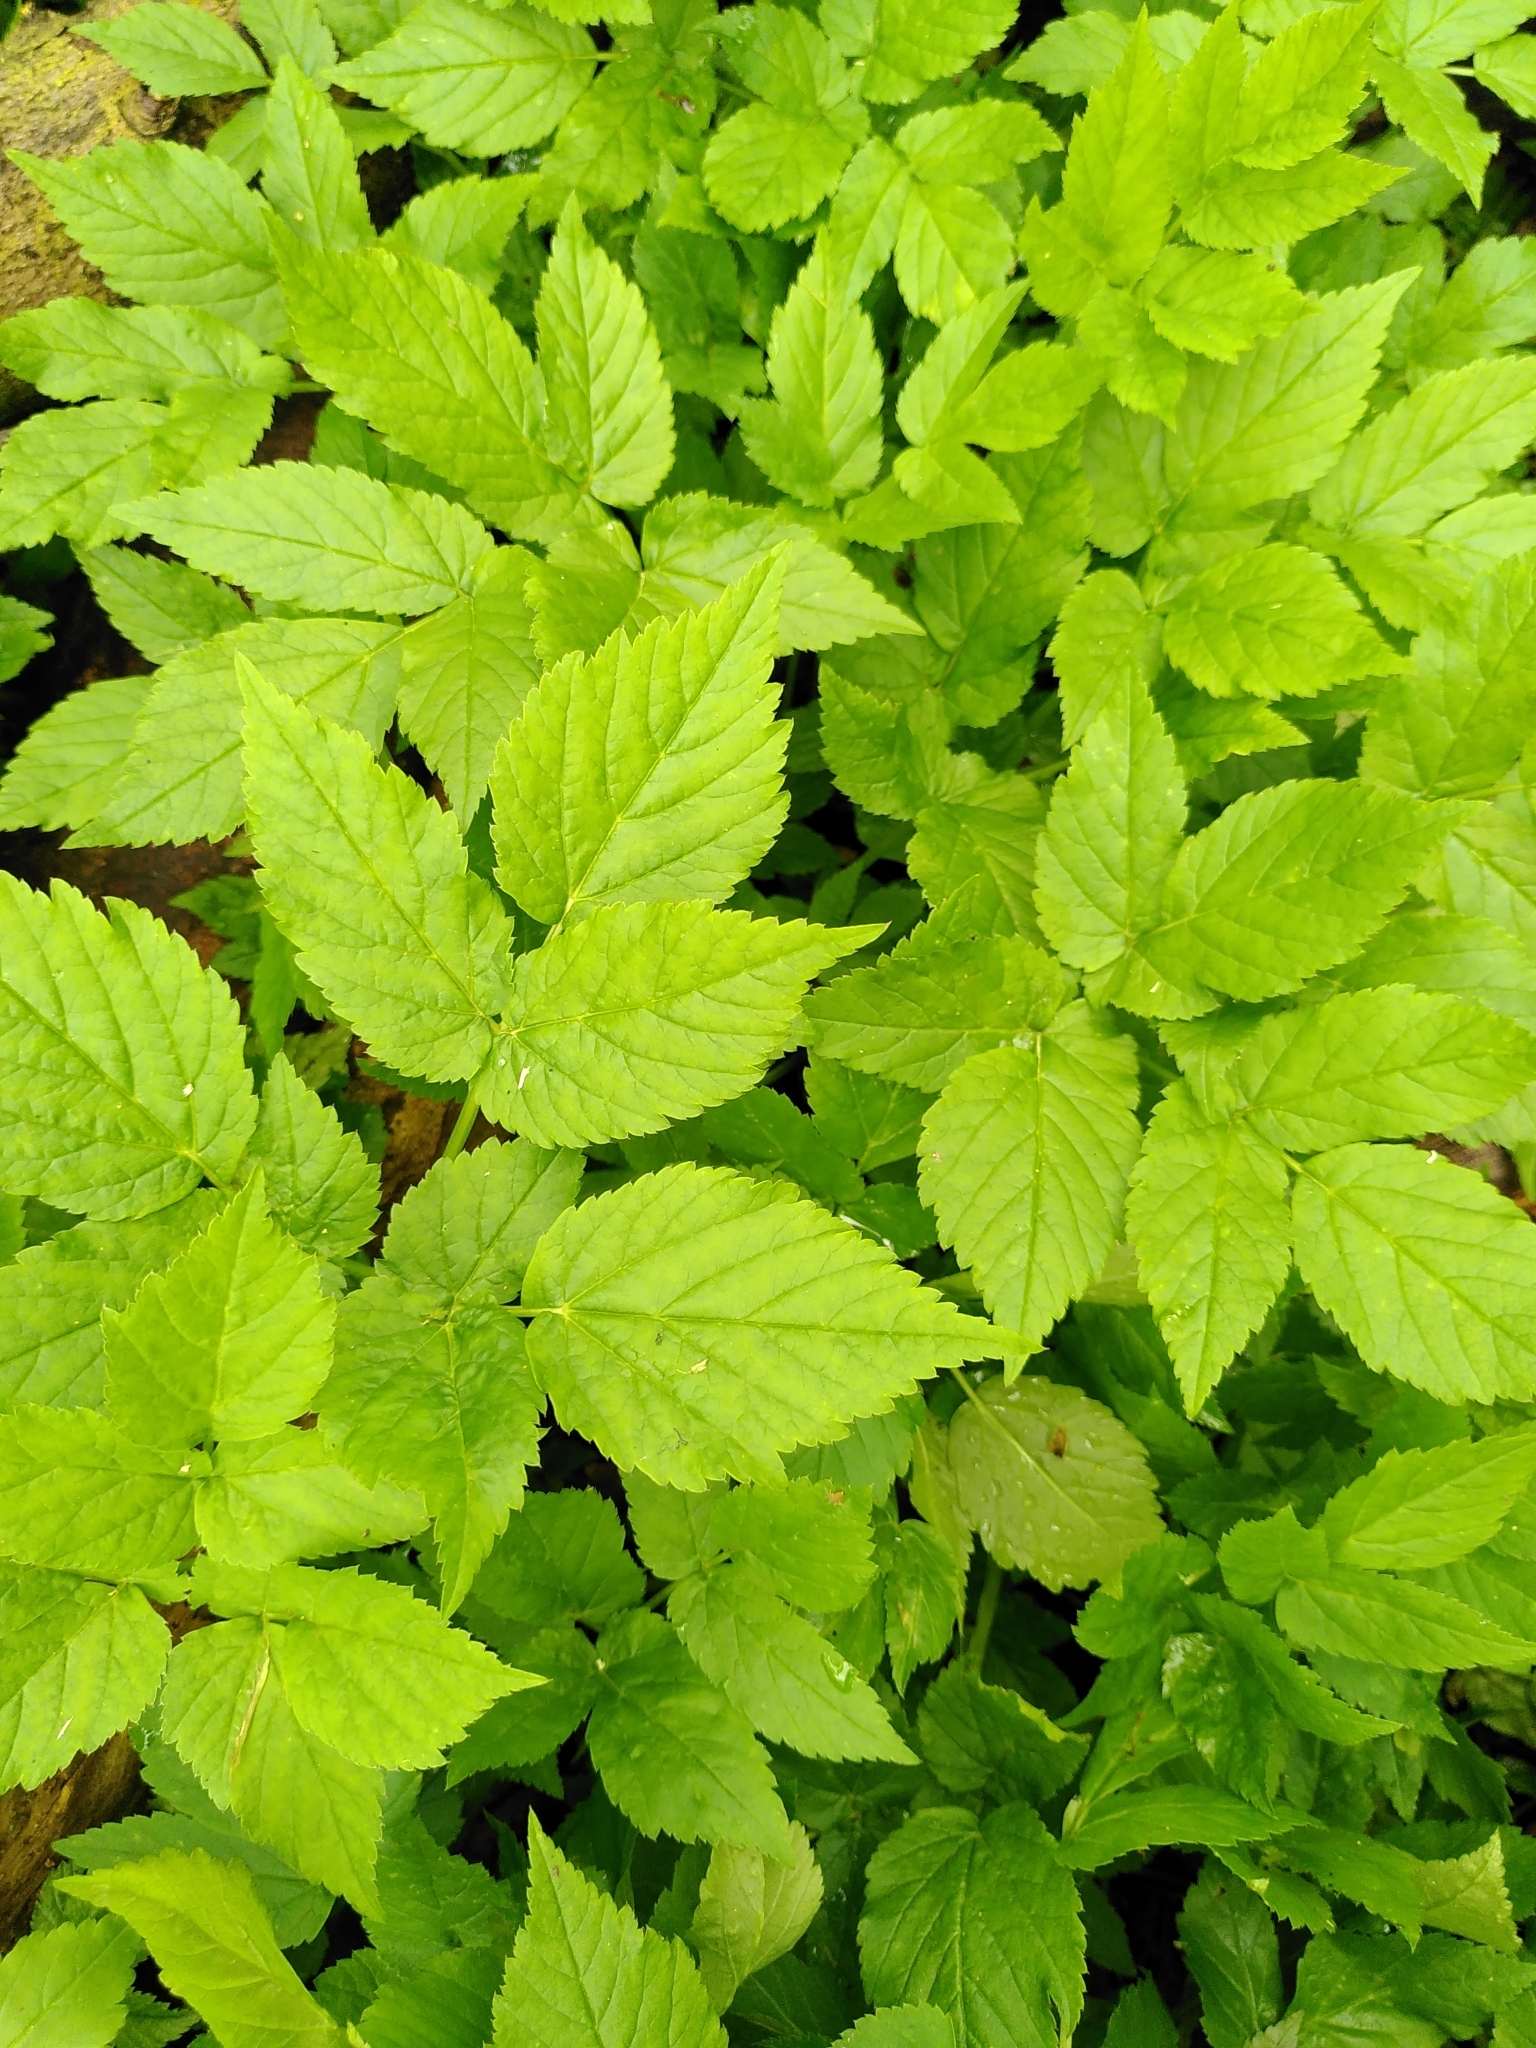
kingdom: Plantae
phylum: Tracheophyta
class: Magnoliopsida
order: Apiales
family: Apiaceae
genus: Aegopodium
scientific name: Aegopodium podagraria
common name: Ground-elder
